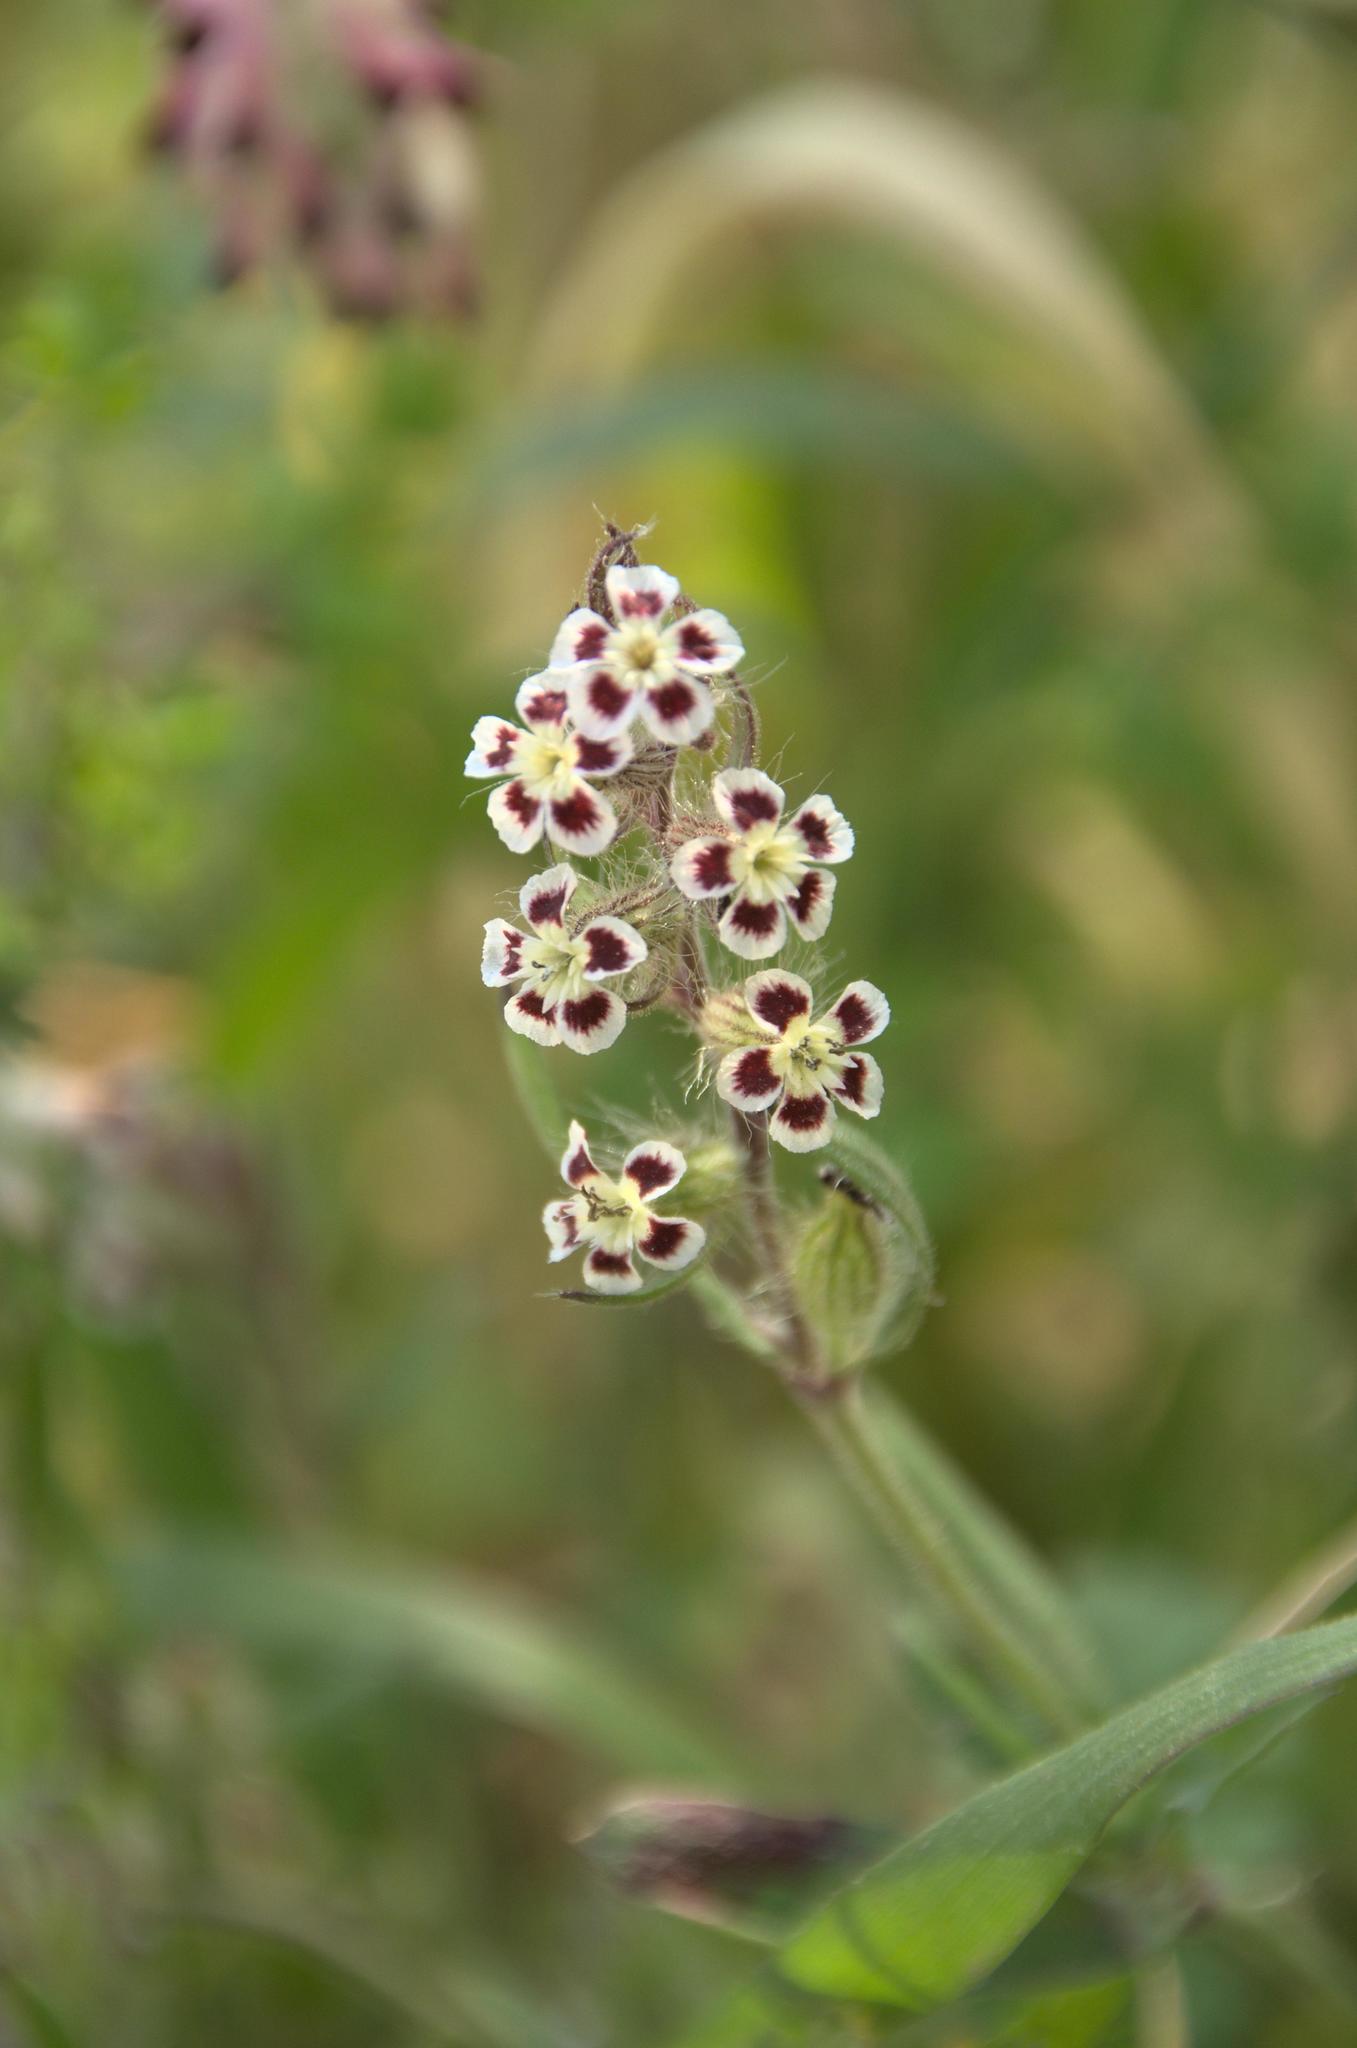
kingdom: Plantae
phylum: Tracheophyta
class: Magnoliopsida
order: Caryophyllales
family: Caryophyllaceae
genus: Silene
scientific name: Silene gallica
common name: Small-flowered catchfly
